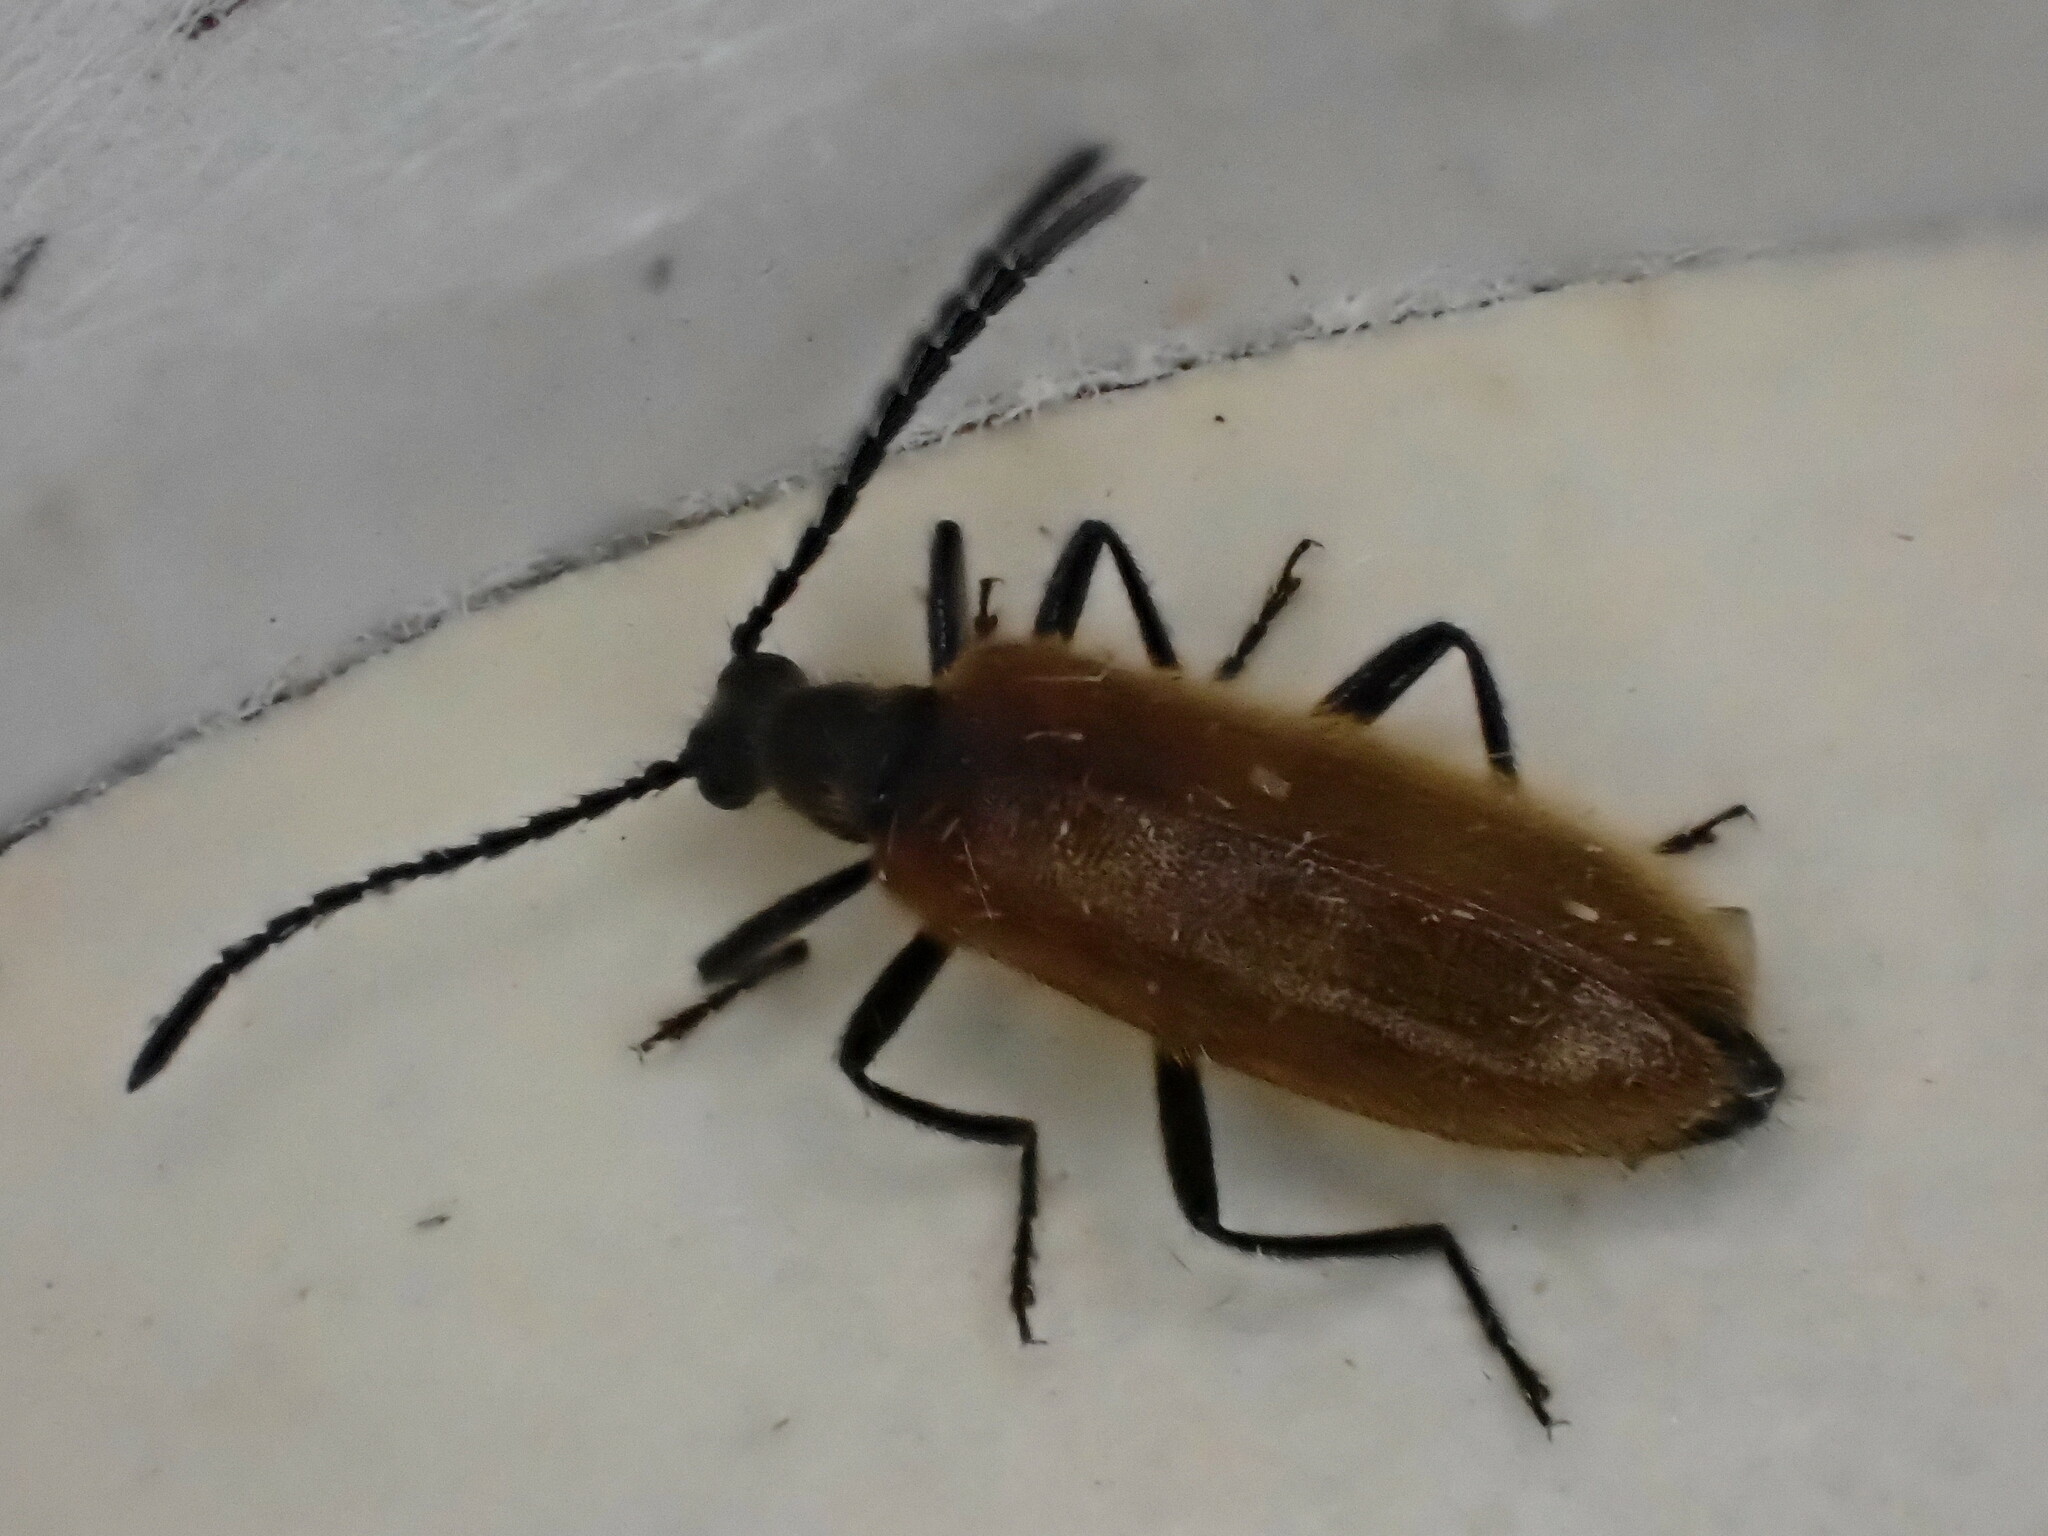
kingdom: Animalia
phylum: Arthropoda
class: Insecta
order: Coleoptera
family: Tenebrionidae
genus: Lagria
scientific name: Lagria hirta
